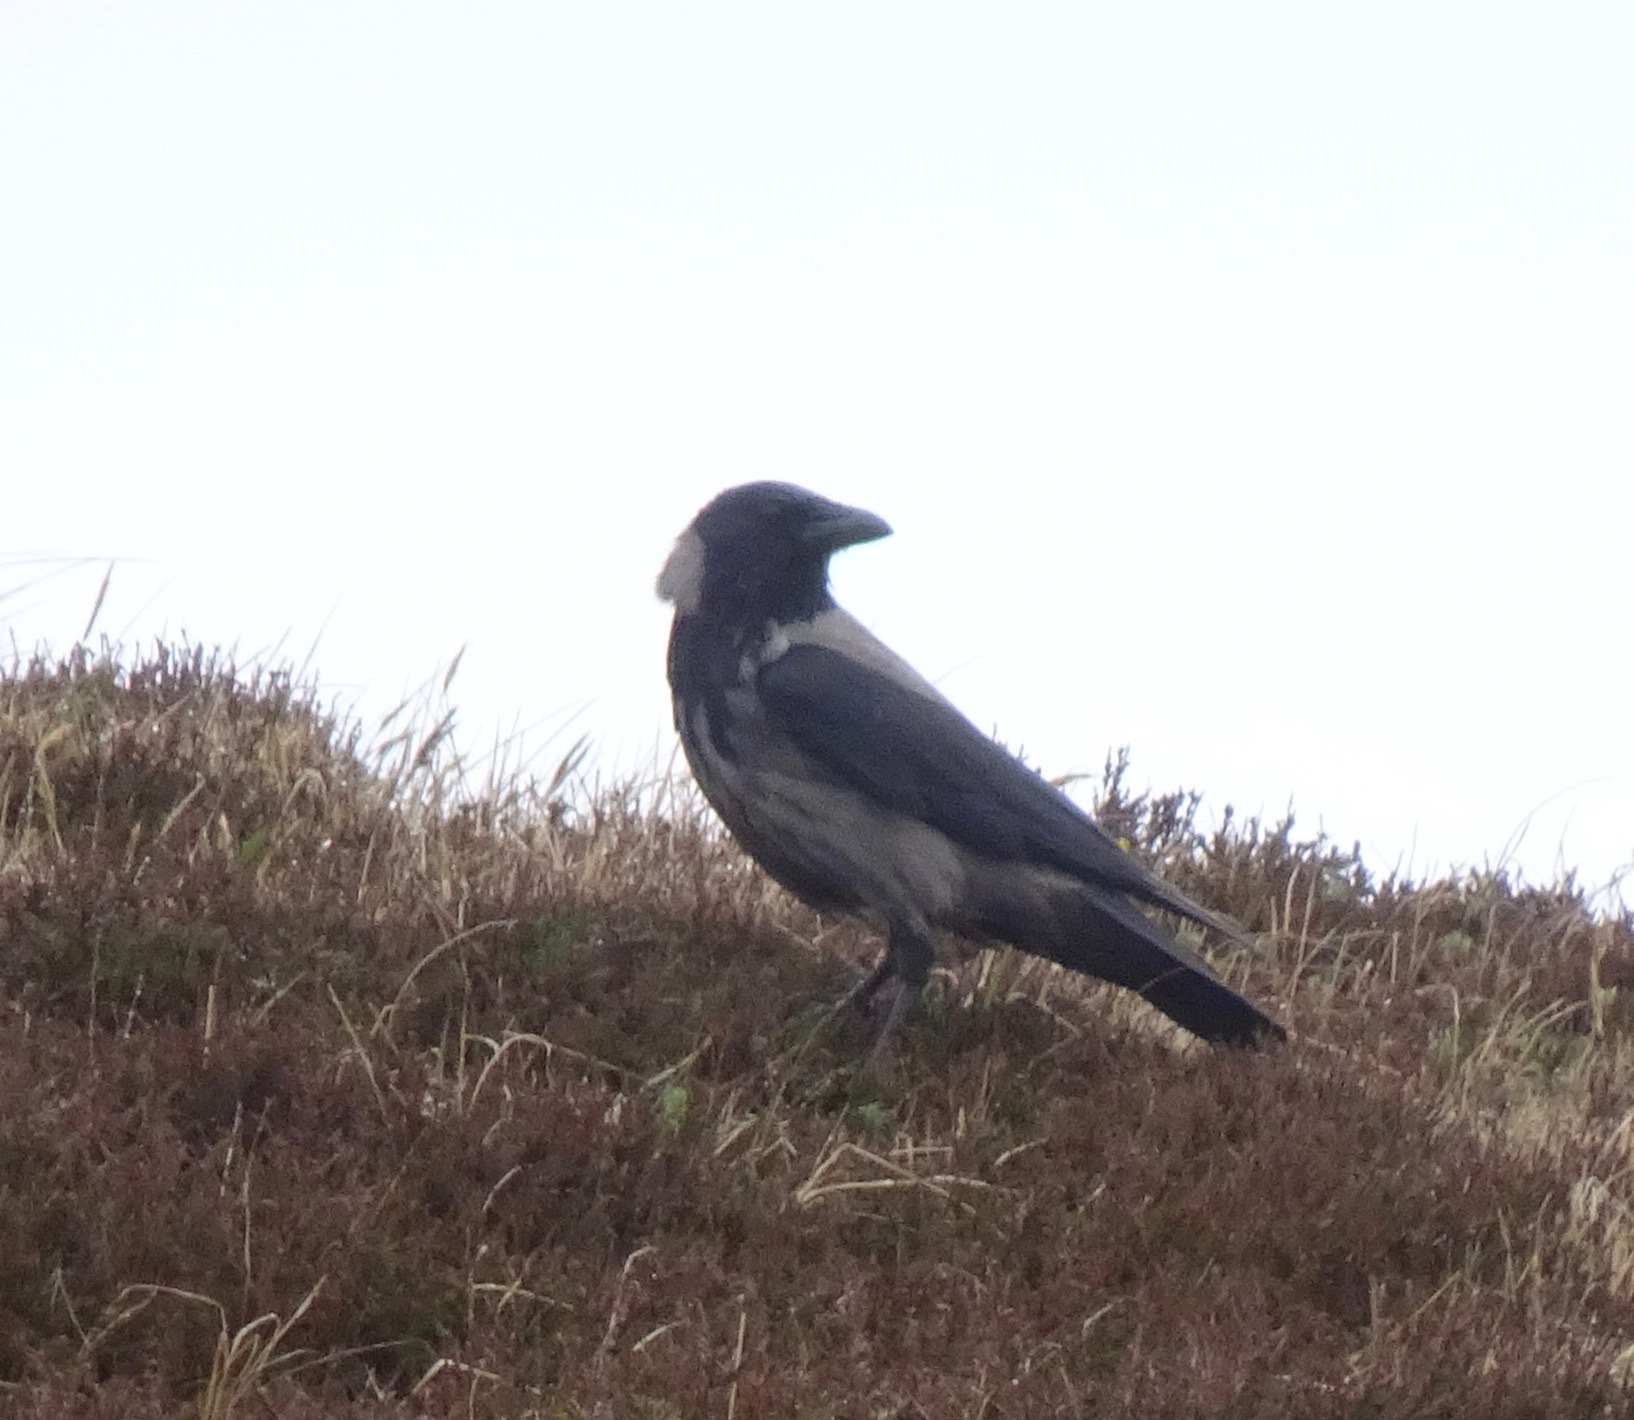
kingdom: Animalia
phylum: Chordata
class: Aves
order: Passeriformes
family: Corvidae
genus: Corvus
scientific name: Corvus cornix
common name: Hooded crow
